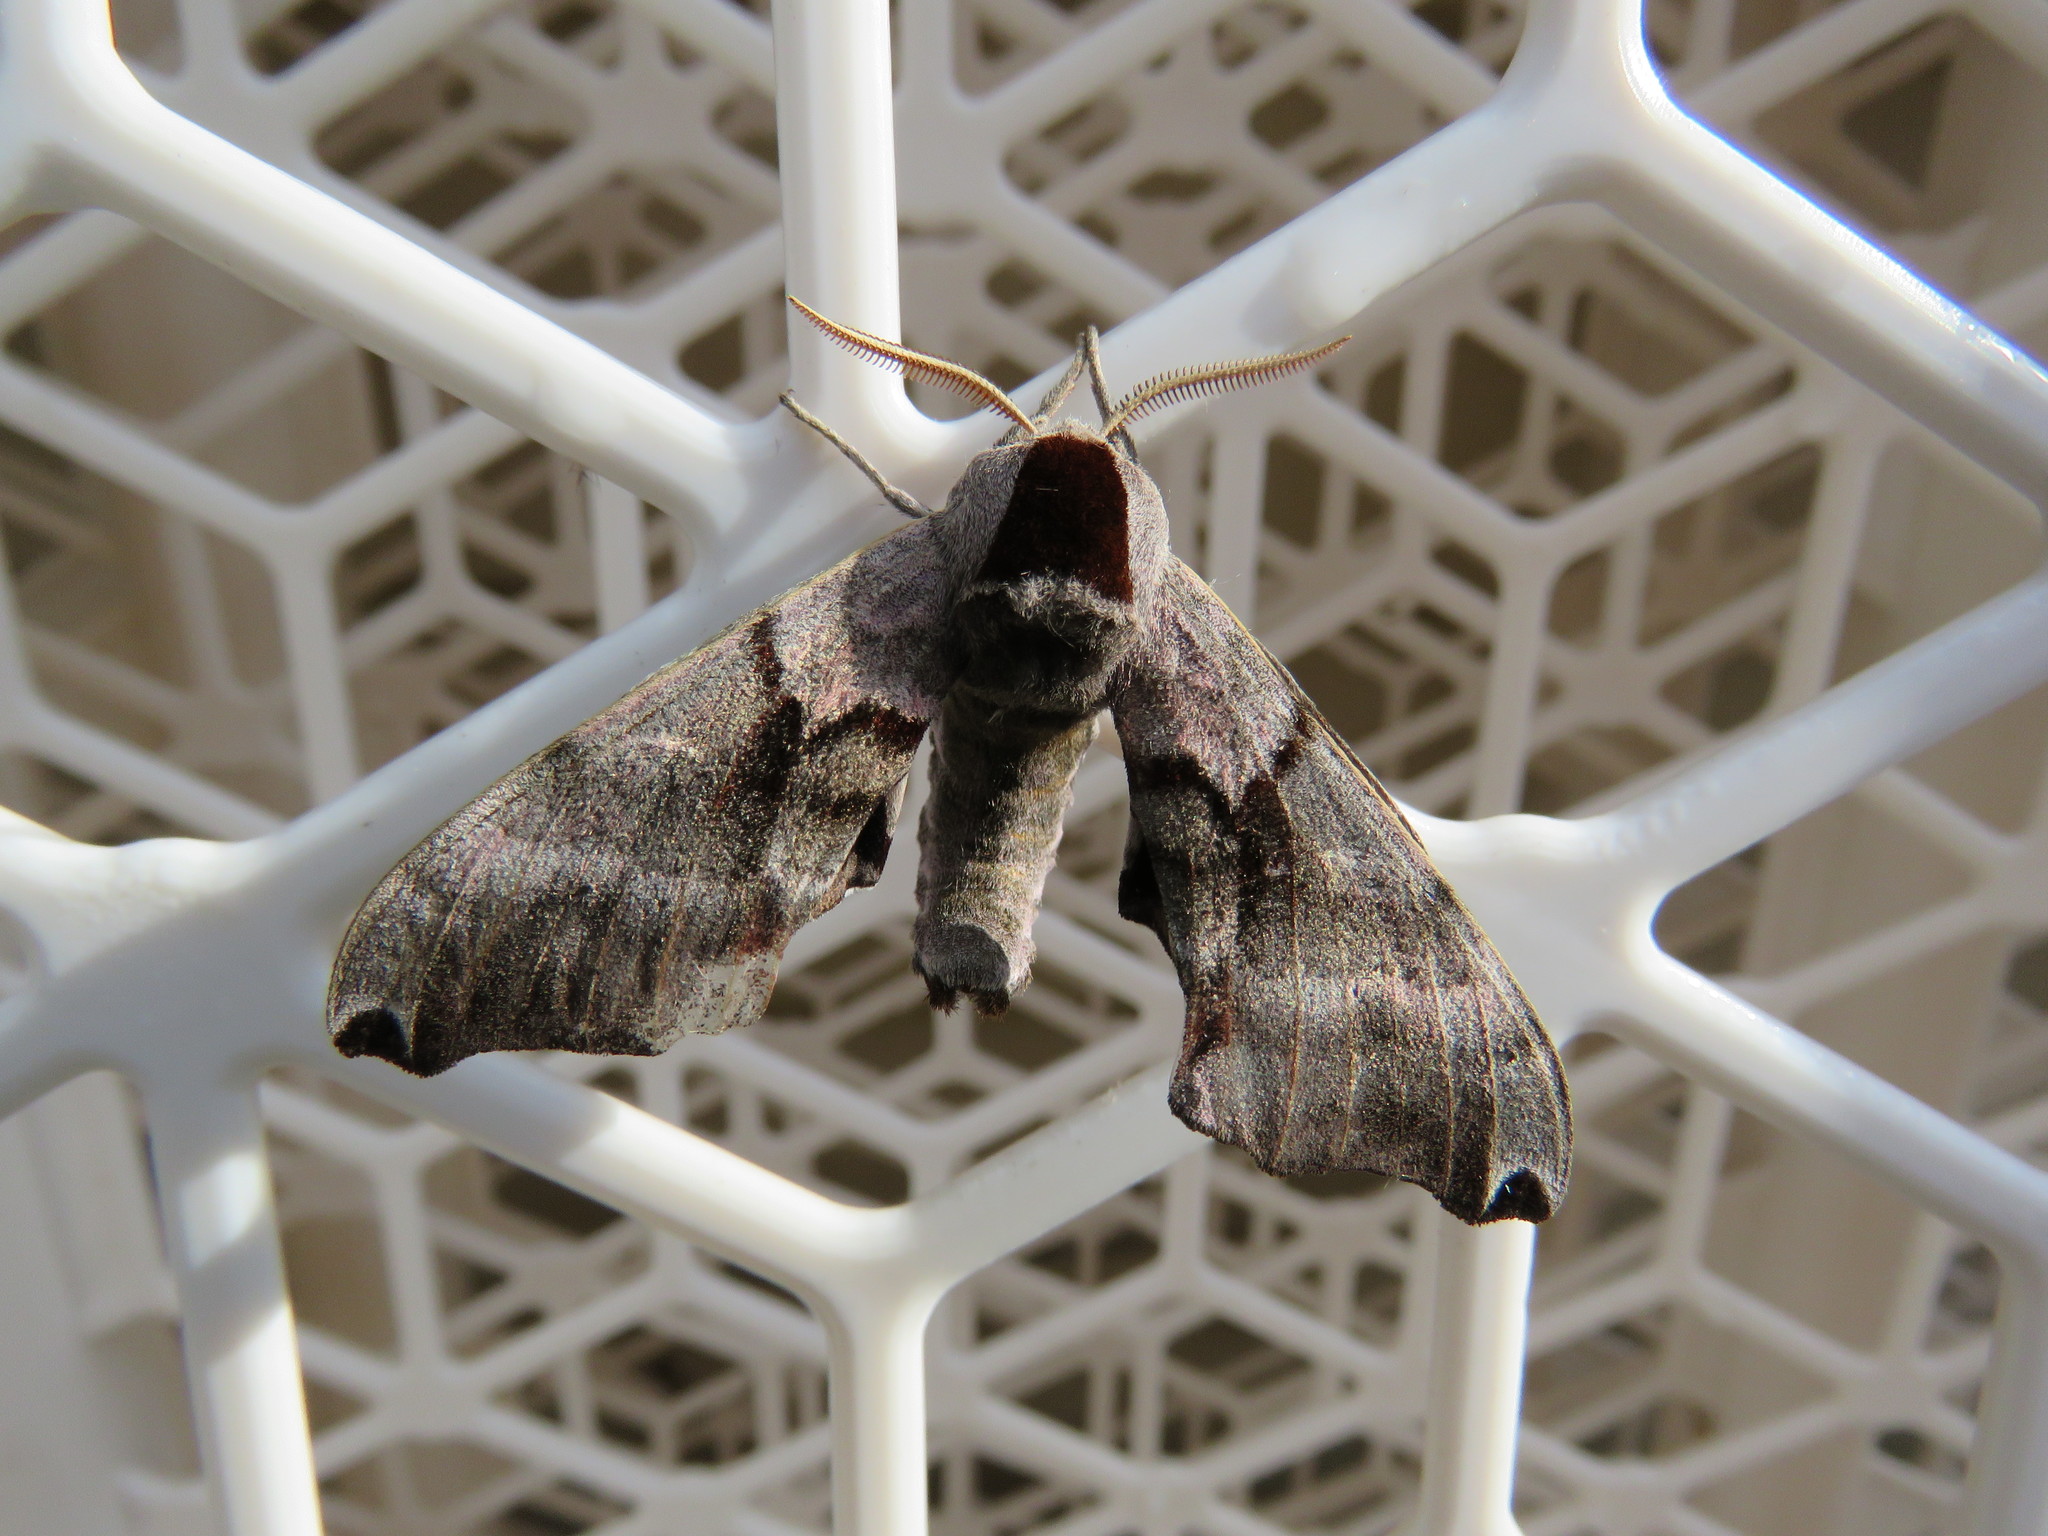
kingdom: Animalia
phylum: Arthropoda
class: Insecta
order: Lepidoptera
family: Sphingidae
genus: Smerinthus
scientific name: Smerinthus jamaicensis
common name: Twin spotted sphinx
